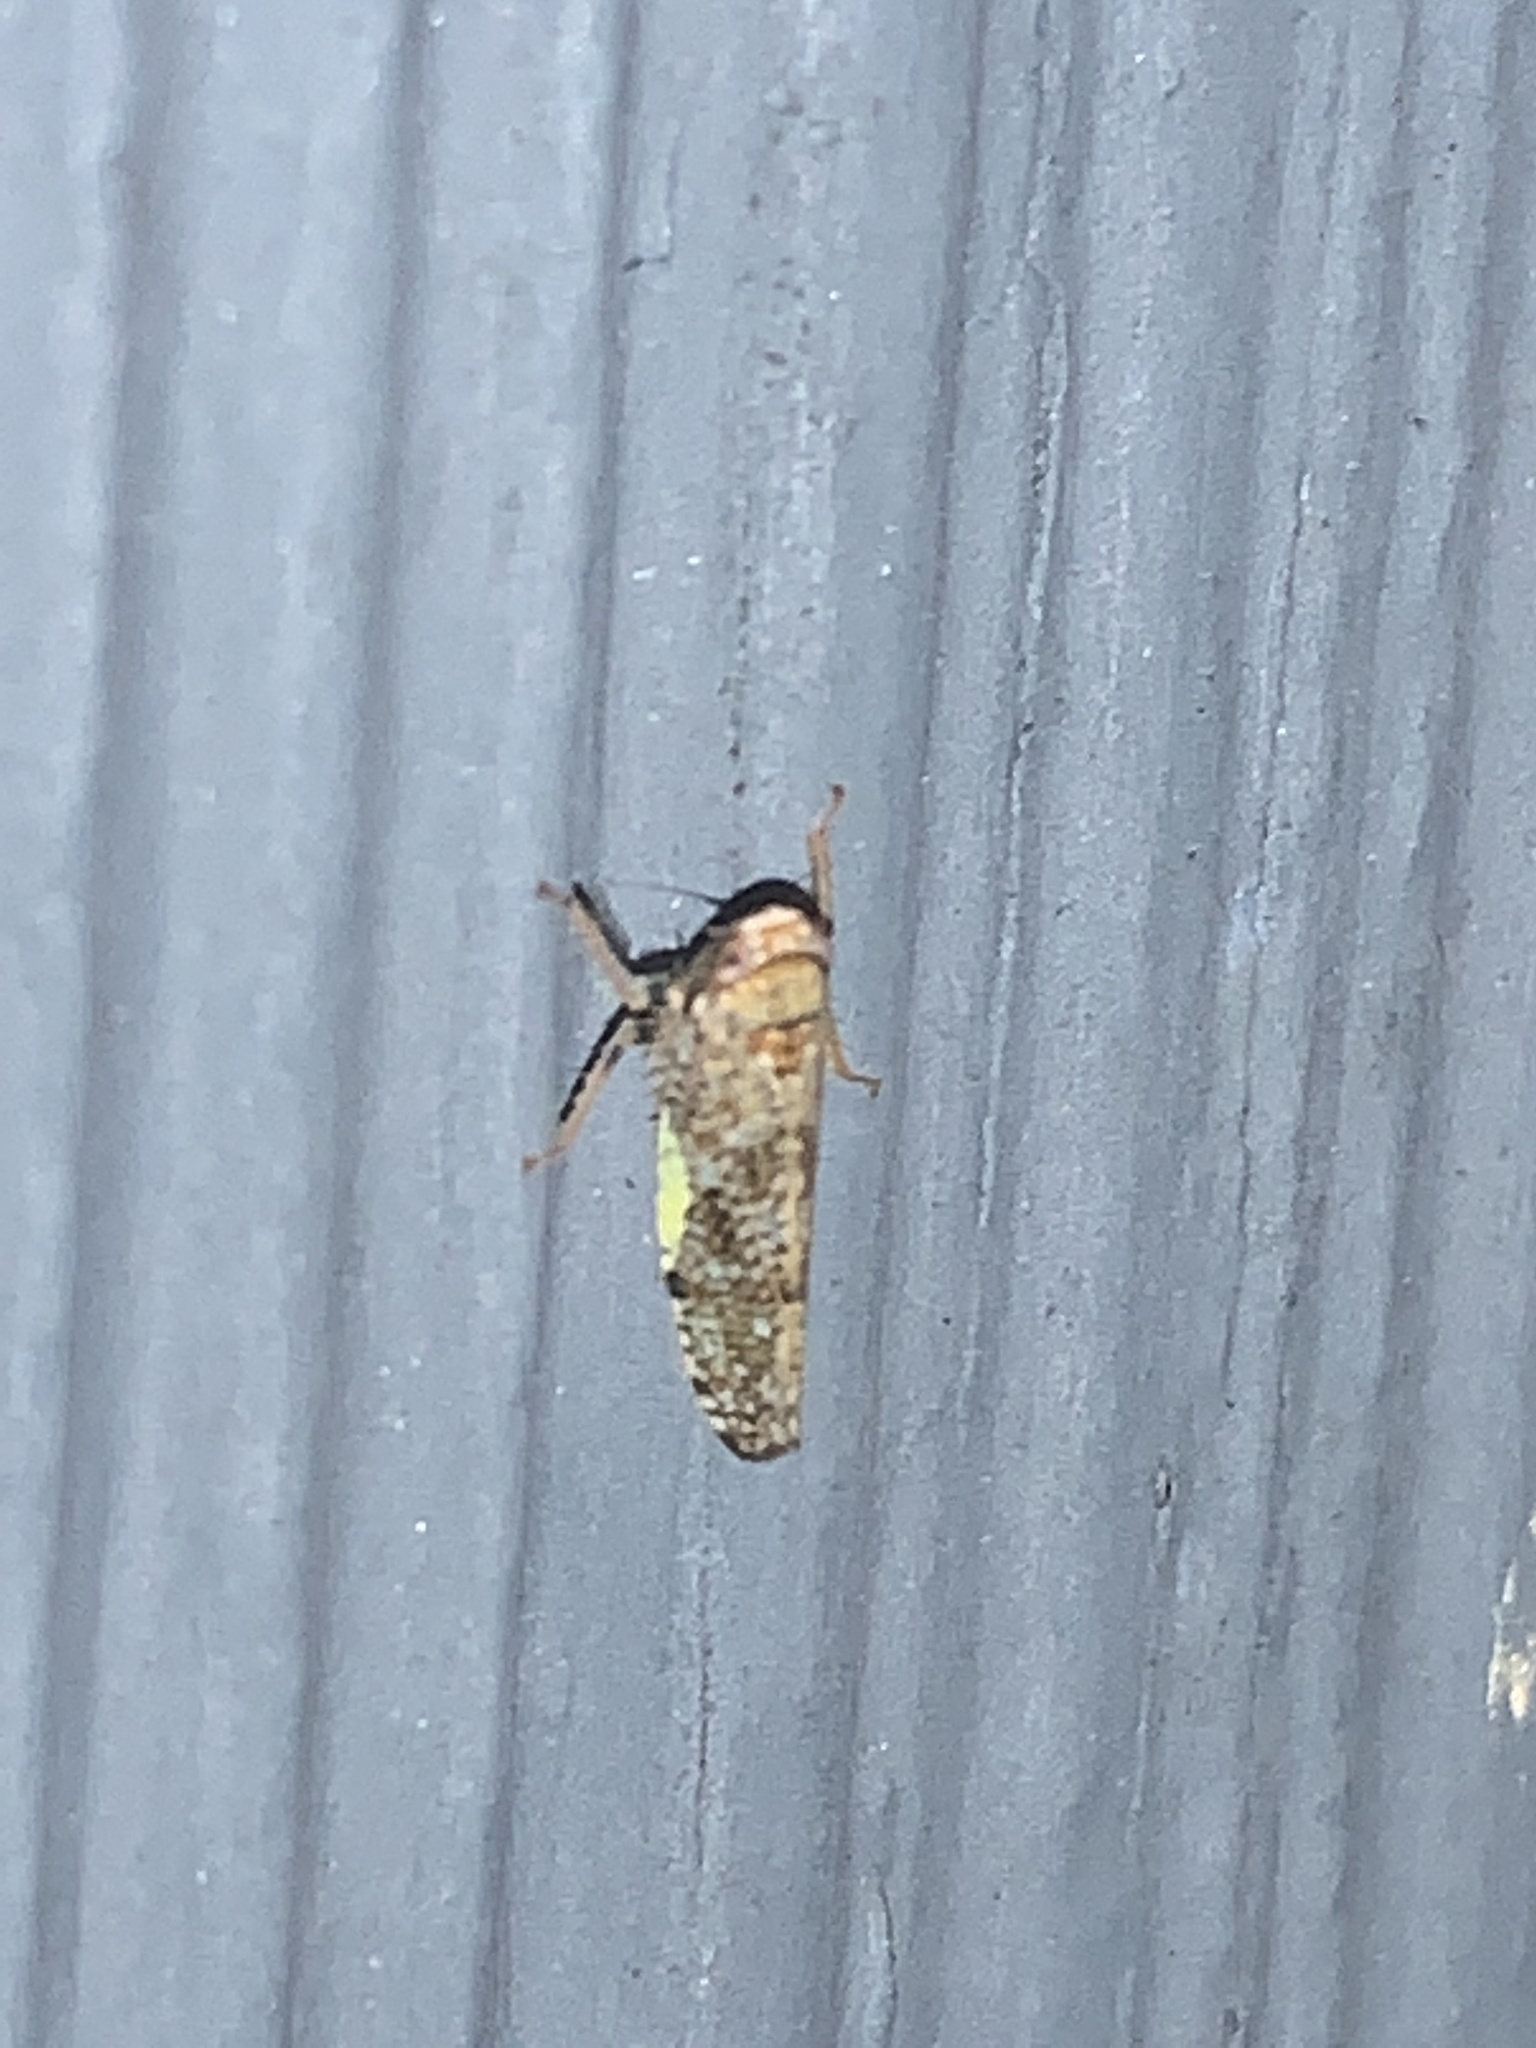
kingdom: Animalia
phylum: Arthropoda
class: Insecta
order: Hemiptera
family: Cicadellidae
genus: Orientus
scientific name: Orientus ishidae
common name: Japanese leafhopper
